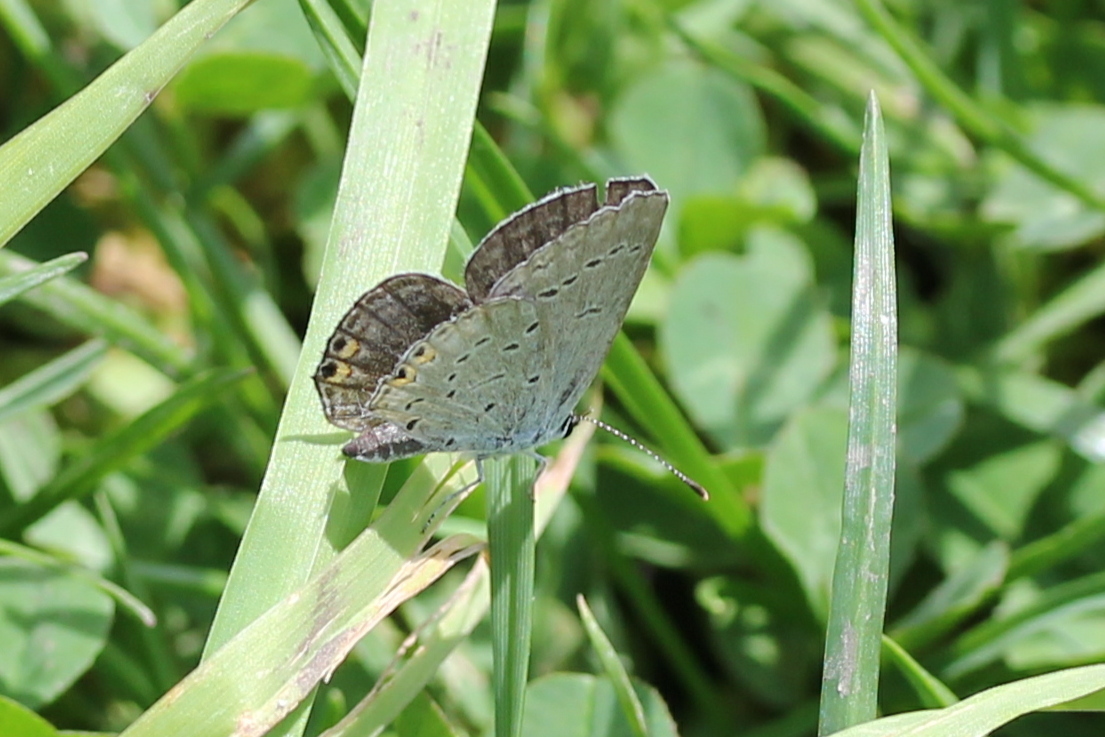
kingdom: Animalia
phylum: Arthropoda
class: Insecta
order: Lepidoptera
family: Lycaenidae
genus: Elkalyce
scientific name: Elkalyce comyntas
